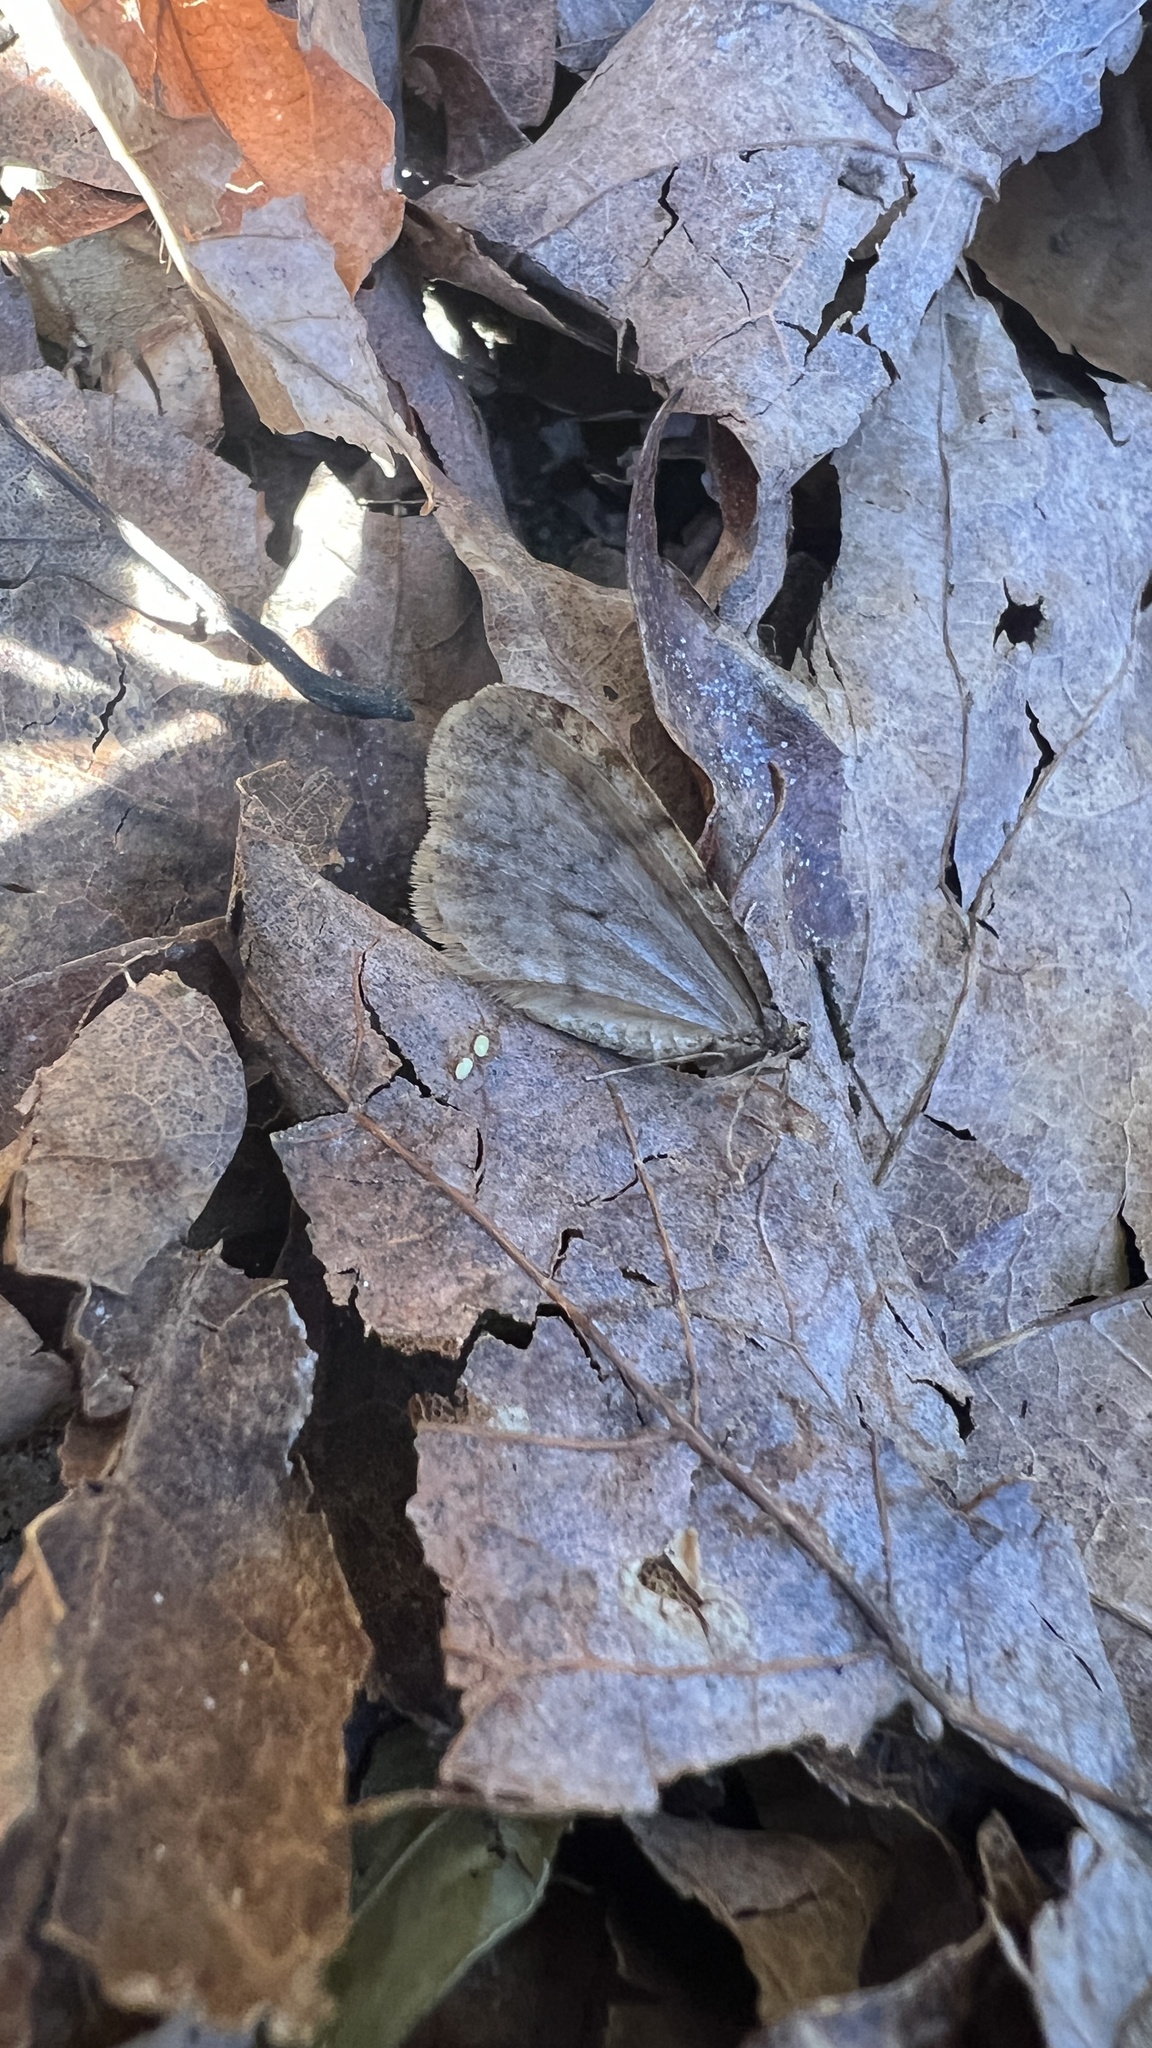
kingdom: Animalia
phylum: Arthropoda
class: Insecta
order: Lepidoptera
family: Geometridae
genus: Operophtera
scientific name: Operophtera bruceata
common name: Bruce spanworm
